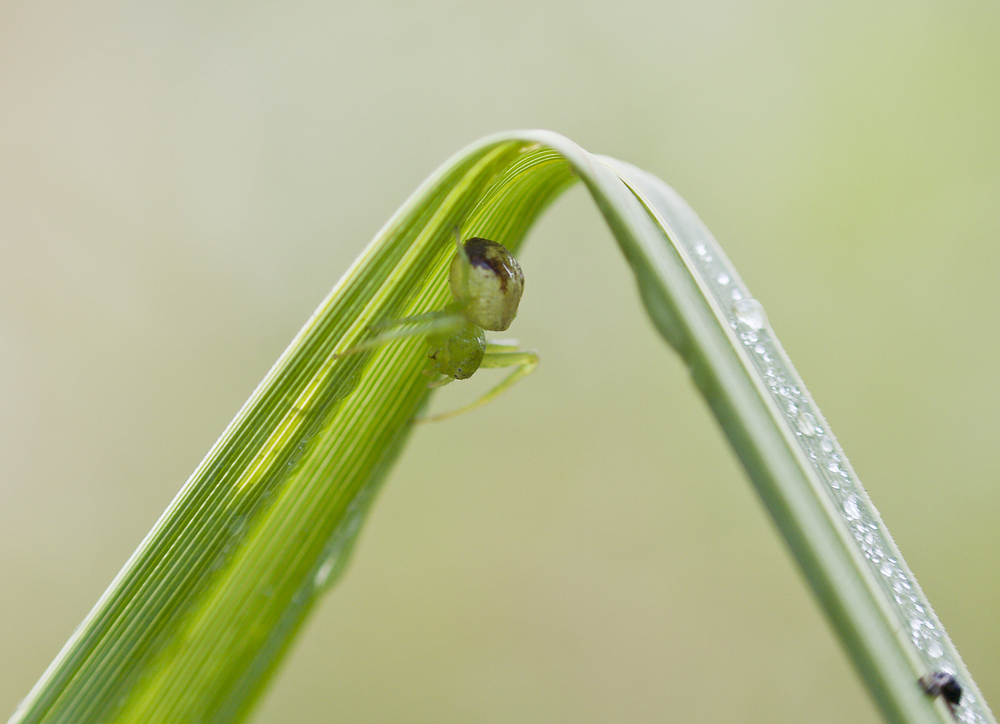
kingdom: Animalia
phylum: Arthropoda
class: Arachnida
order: Araneae
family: Thomisidae
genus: Ebrechtella
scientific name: Ebrechtella tricuspidata
